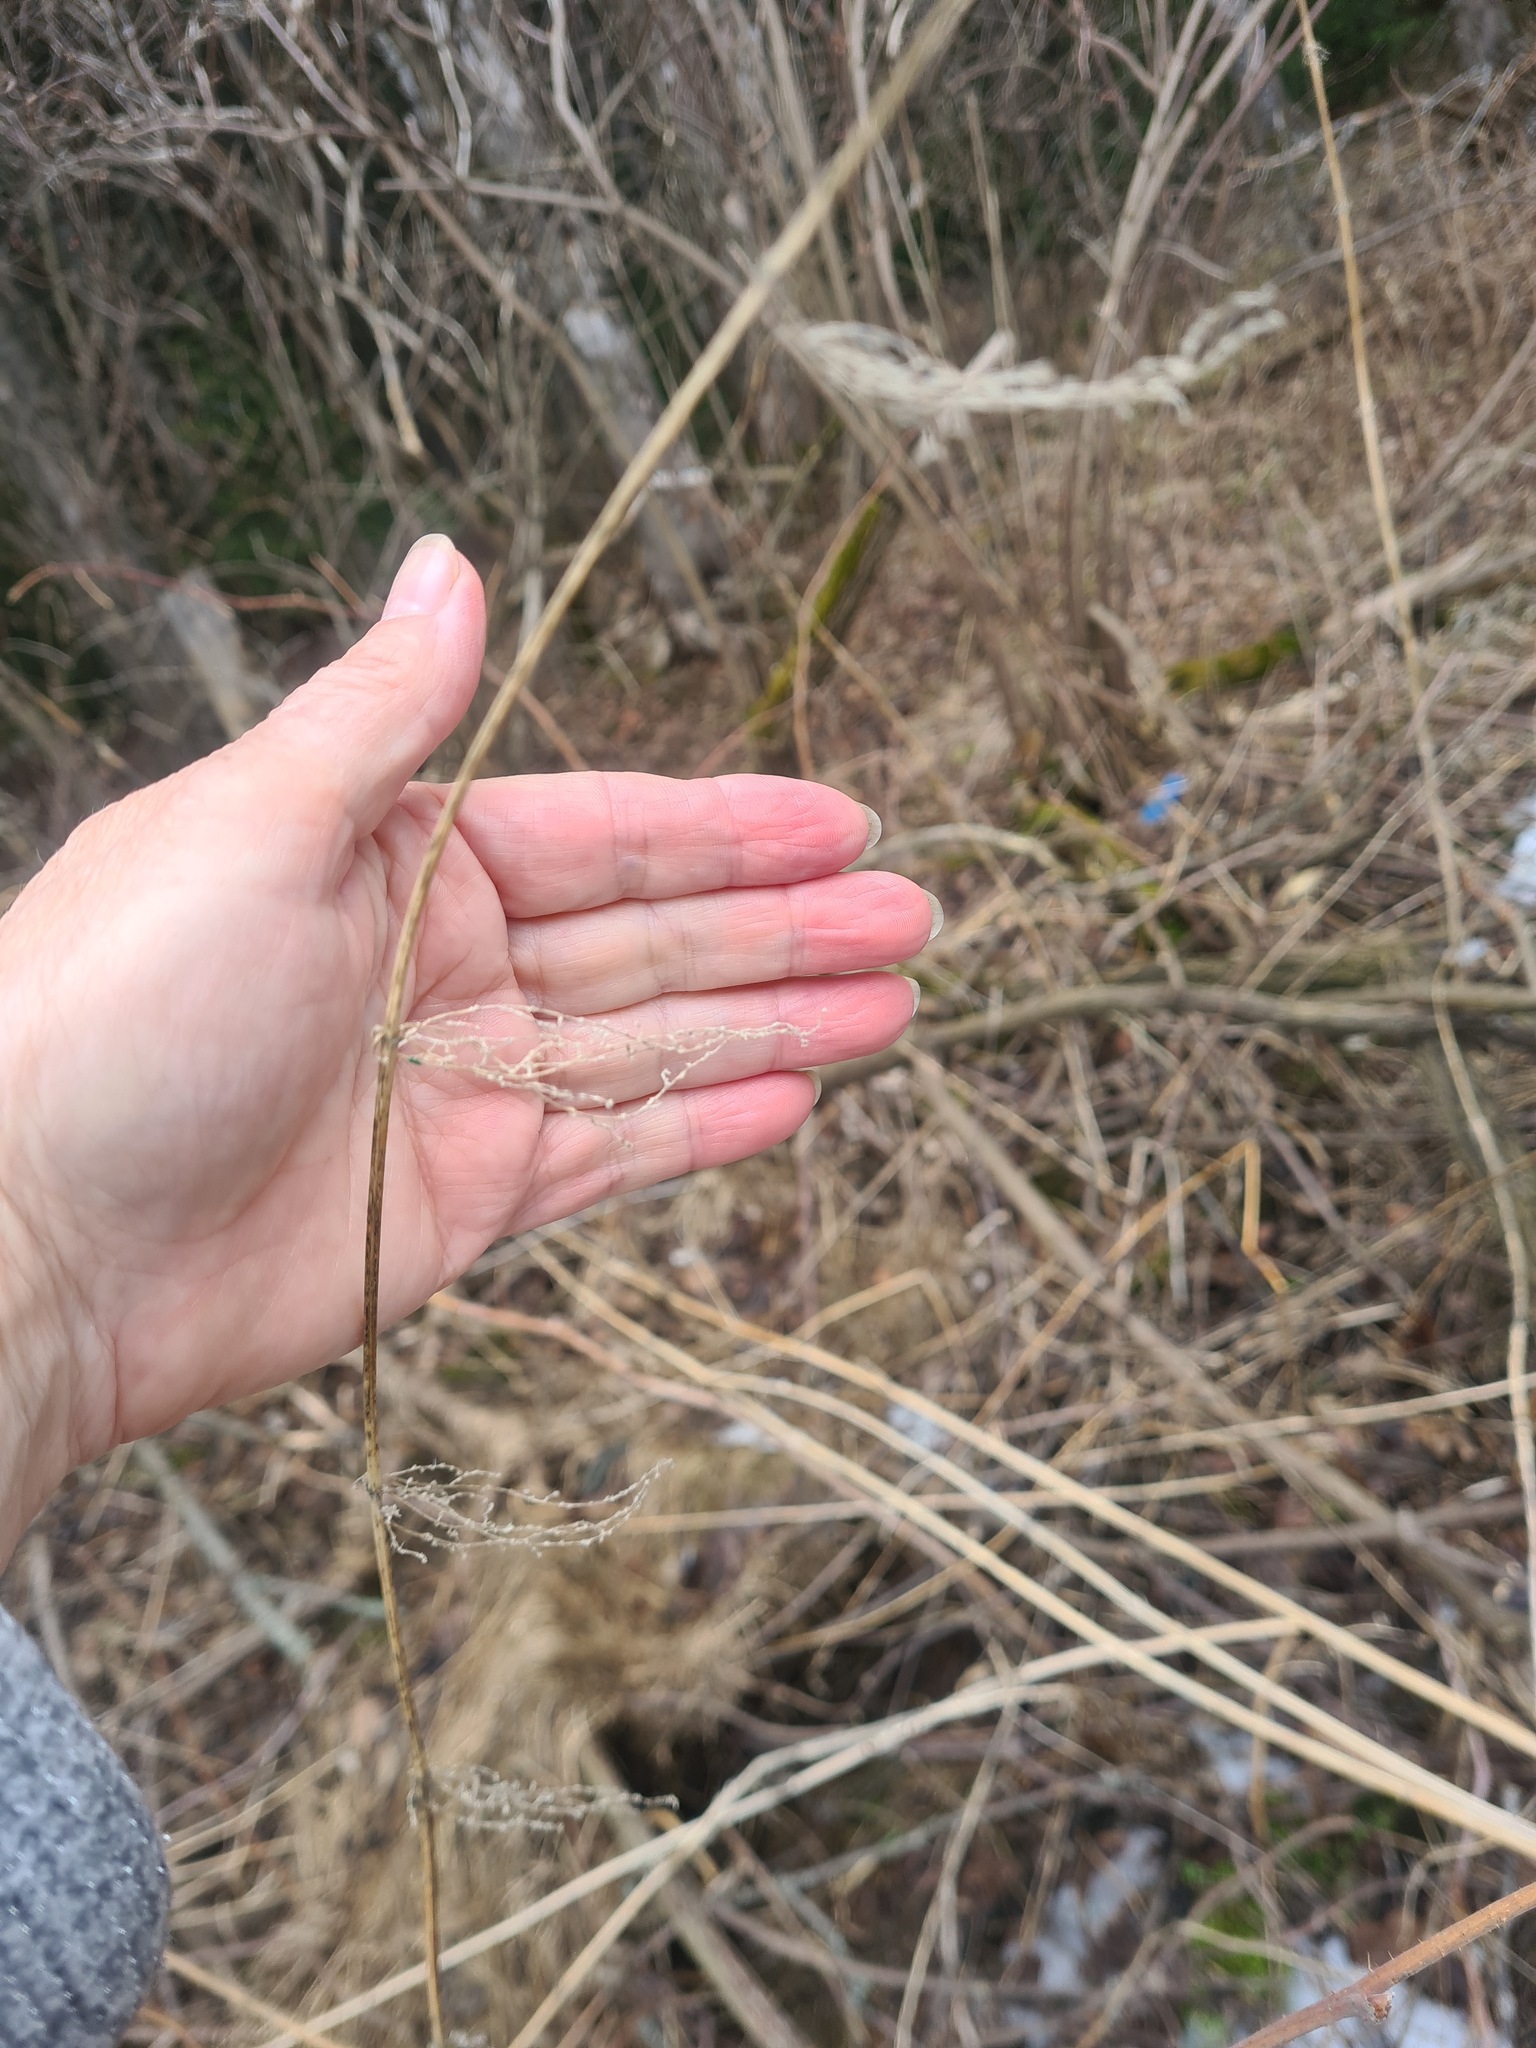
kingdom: Plantae
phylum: Tracheophyta
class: Magnoliopsida
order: Rosales
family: Urticaceae
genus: Urtica
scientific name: Urtica dioica
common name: Common nettle
